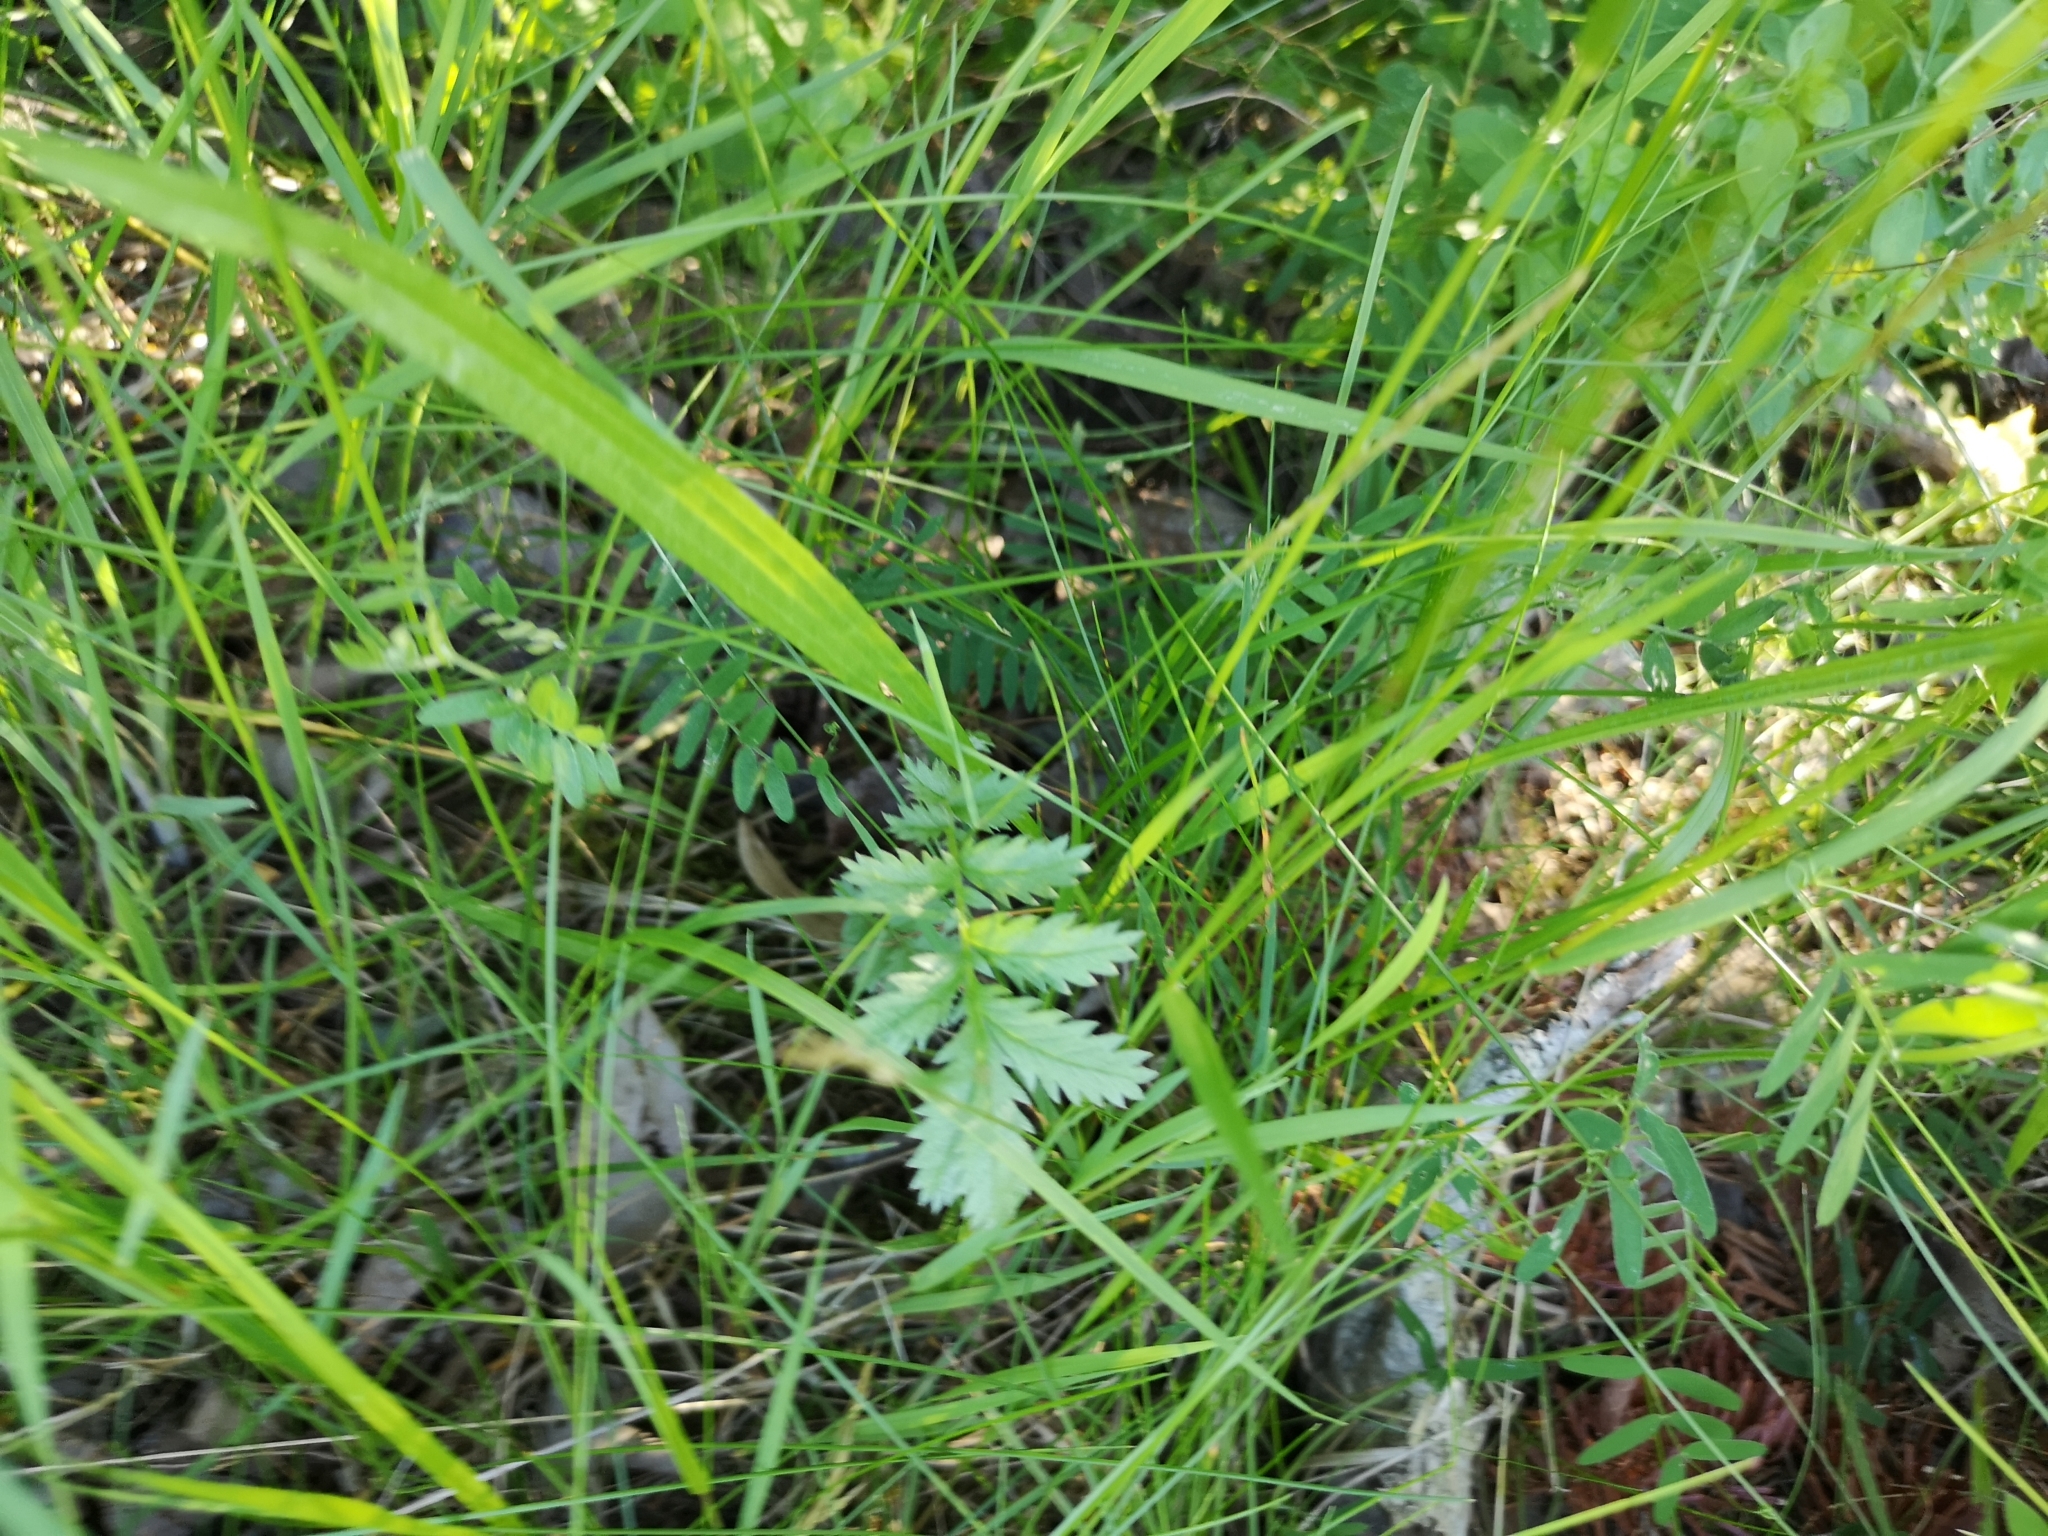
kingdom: Plantae
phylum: Tracheophyta
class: Magnoliopsida
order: Rosales
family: Rosaceae
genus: Argentina
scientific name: Argentina anserina
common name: Common silverweed
